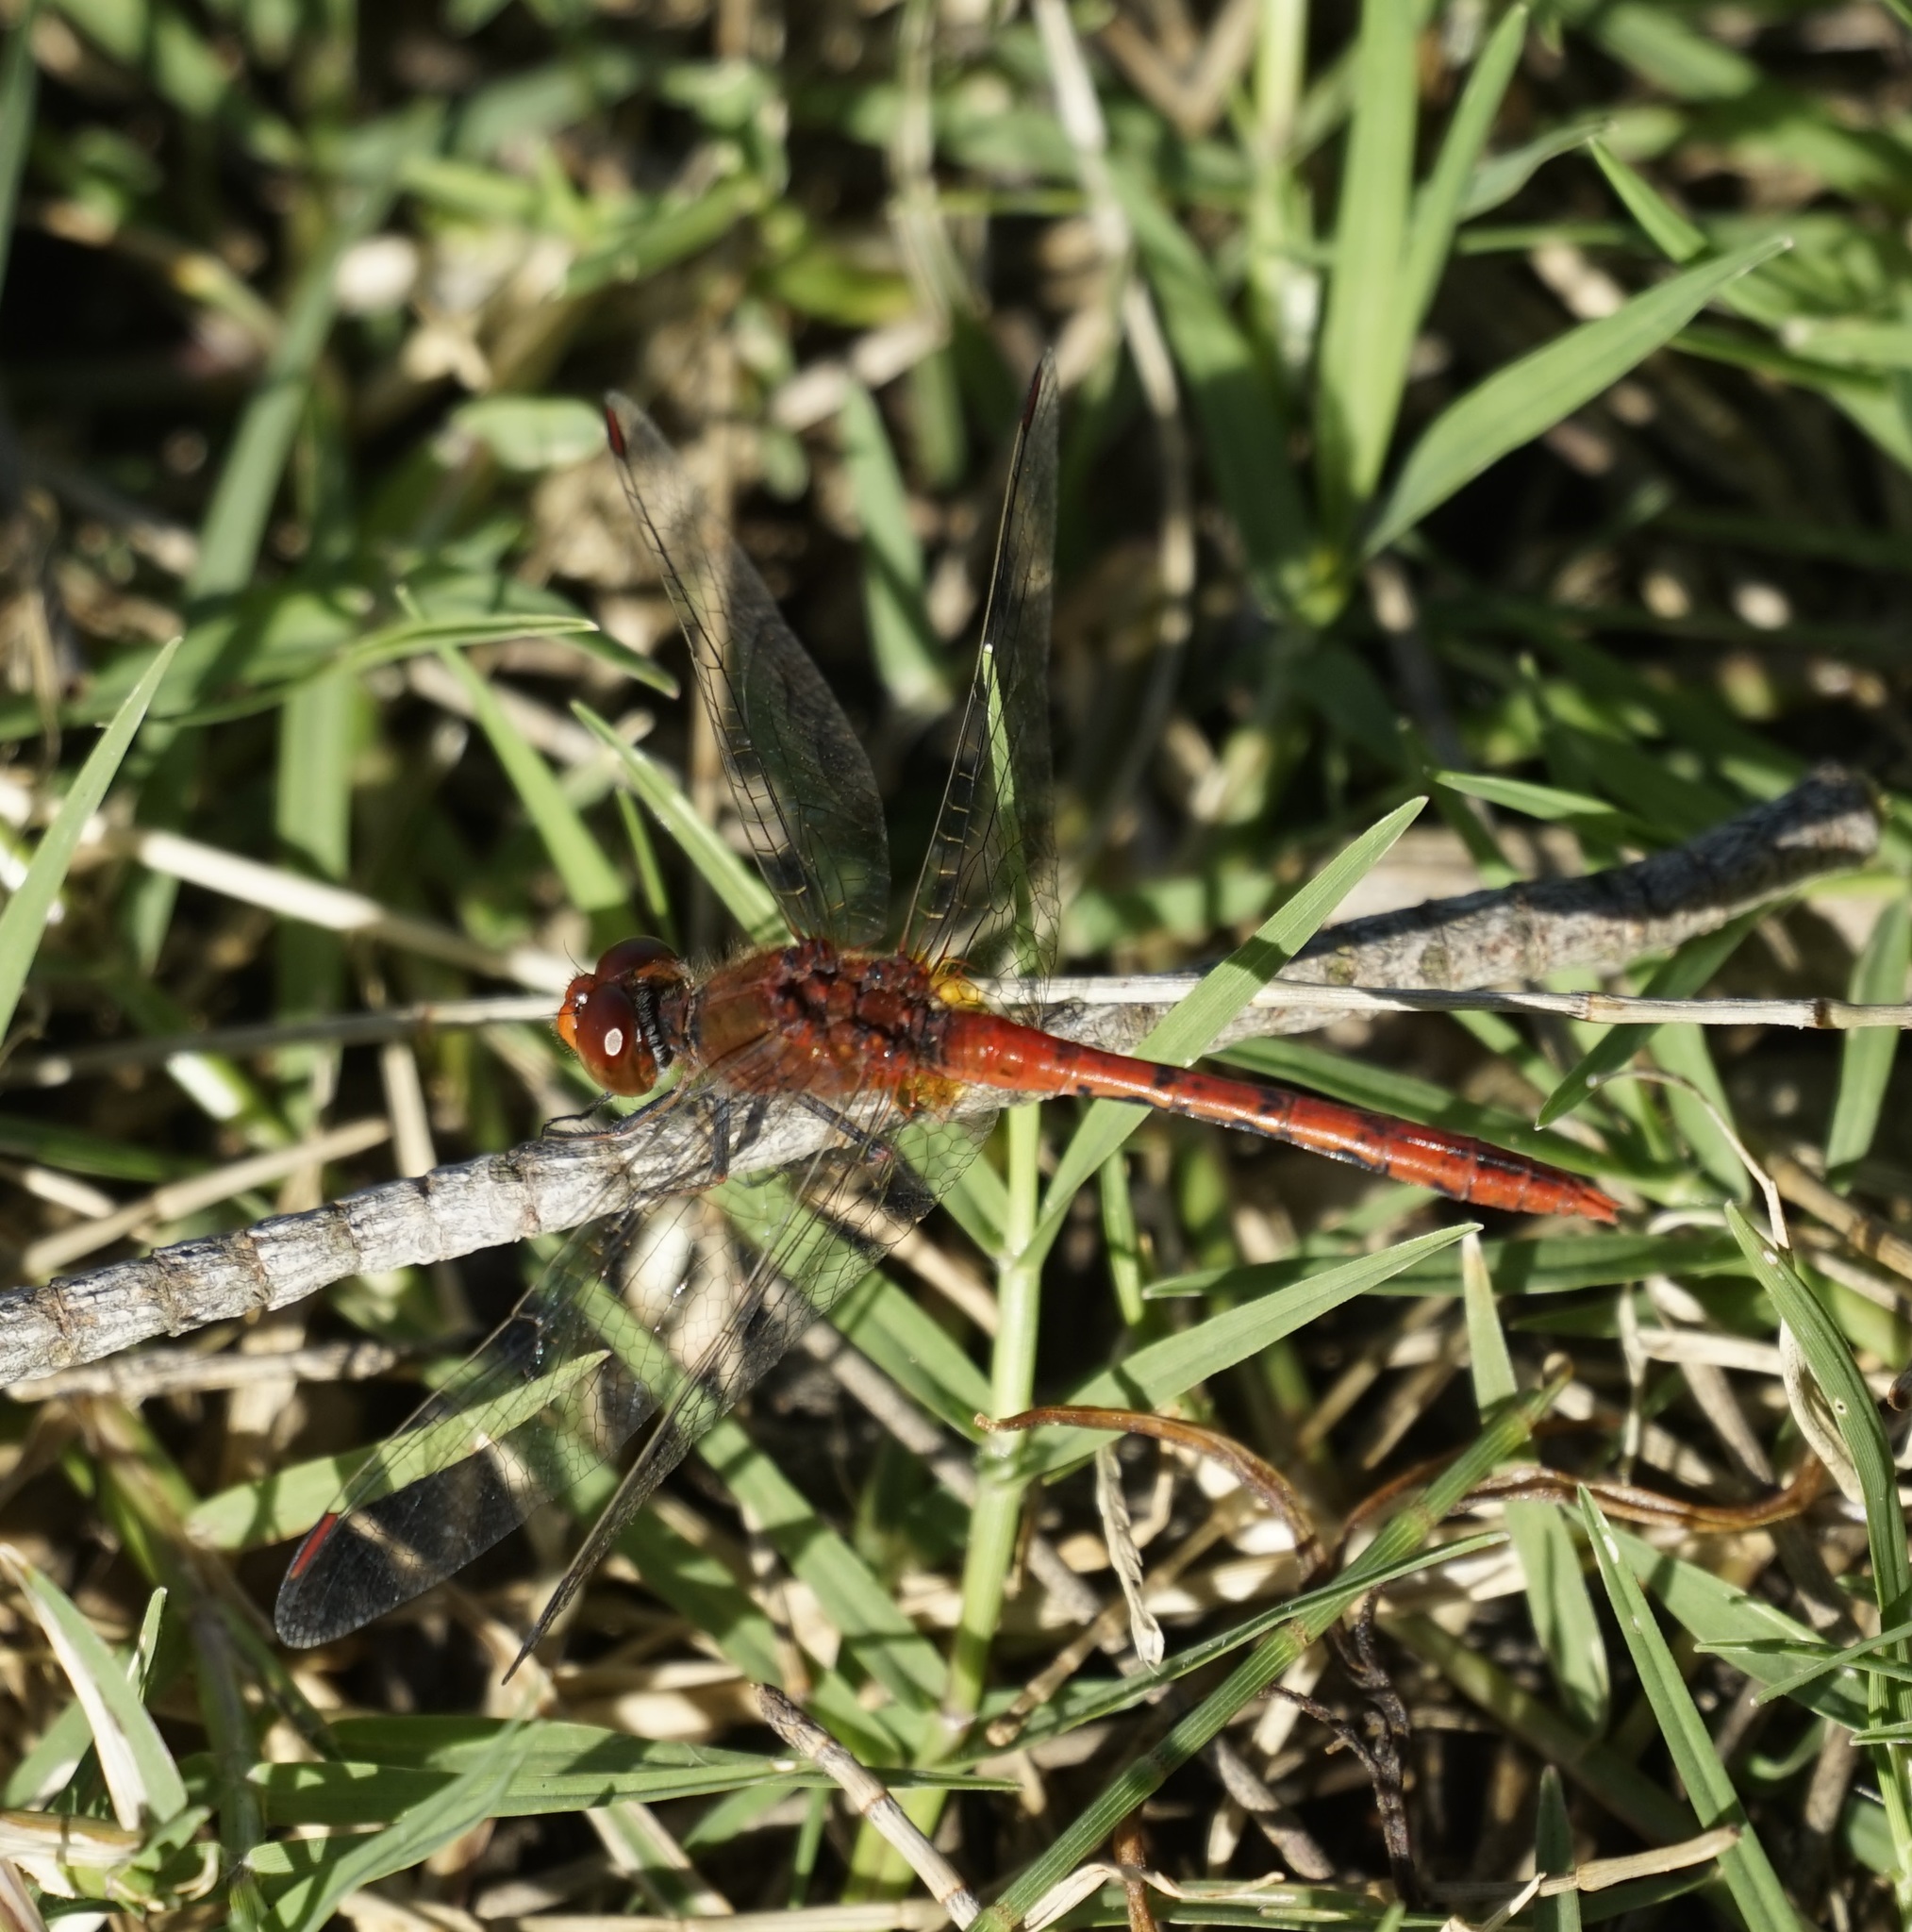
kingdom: Animalia
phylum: Arthropoda
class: Insecta
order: Odonata
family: Libellulidae
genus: Diplacodes
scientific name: Diplacodes bipunctata
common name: Red percher dragonfly
